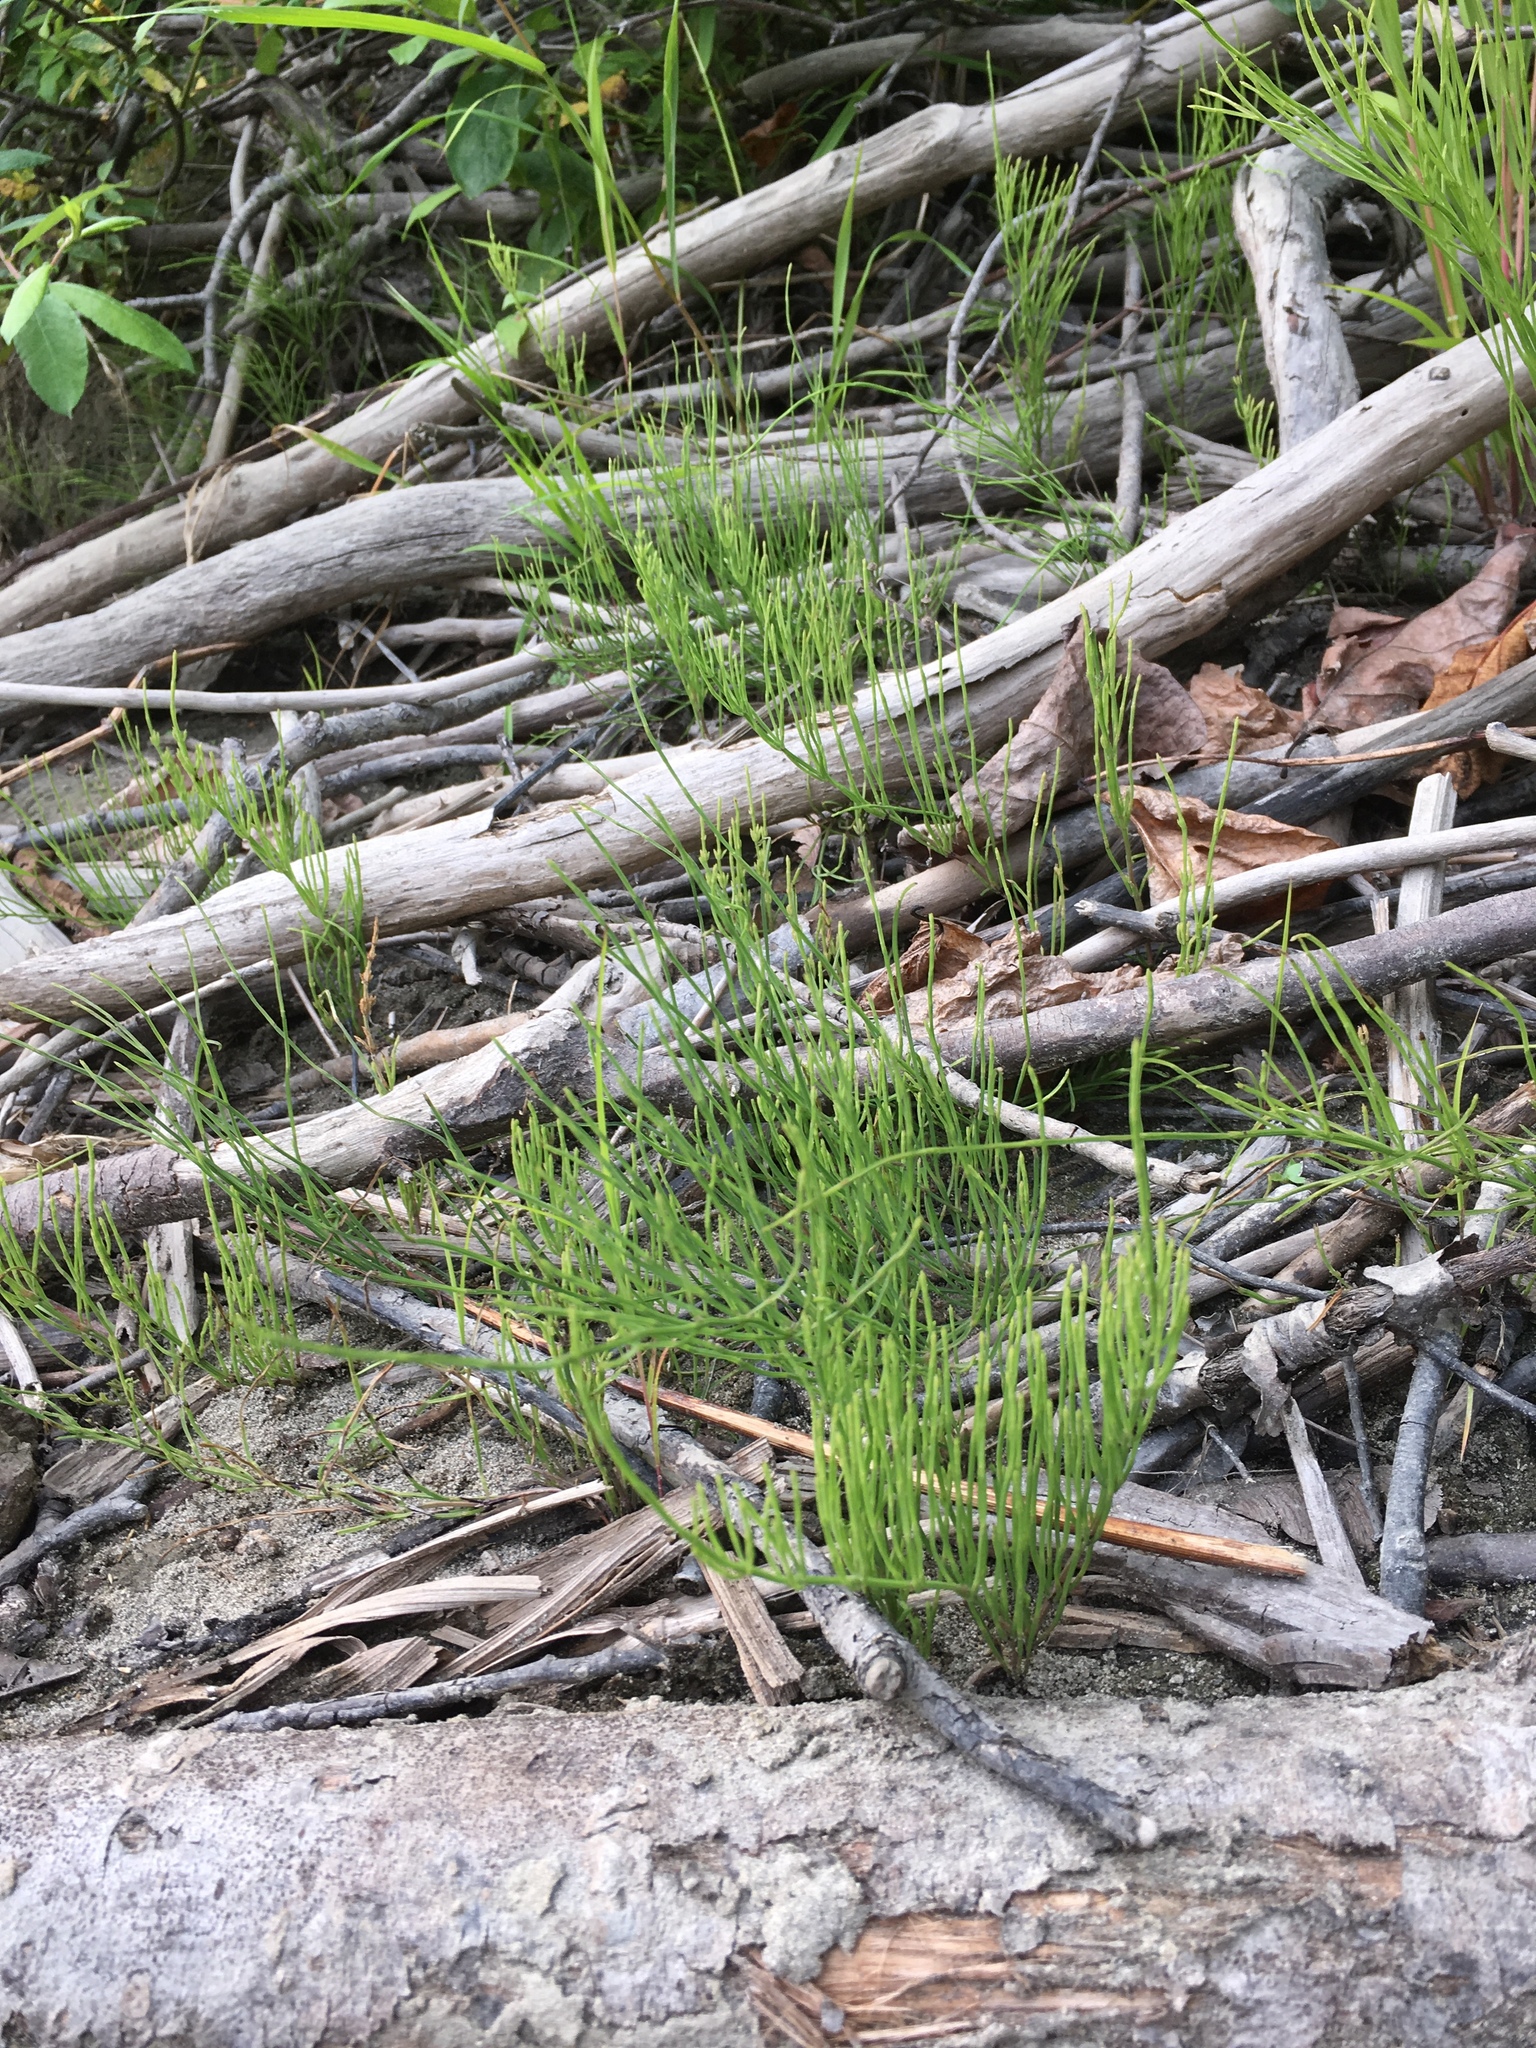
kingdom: Plantae
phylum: Tracheophyta
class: Polypodiopsida
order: Equisetales
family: Equisetaceae
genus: Equisetum
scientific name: Equisetum arvense
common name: Field horsetail
